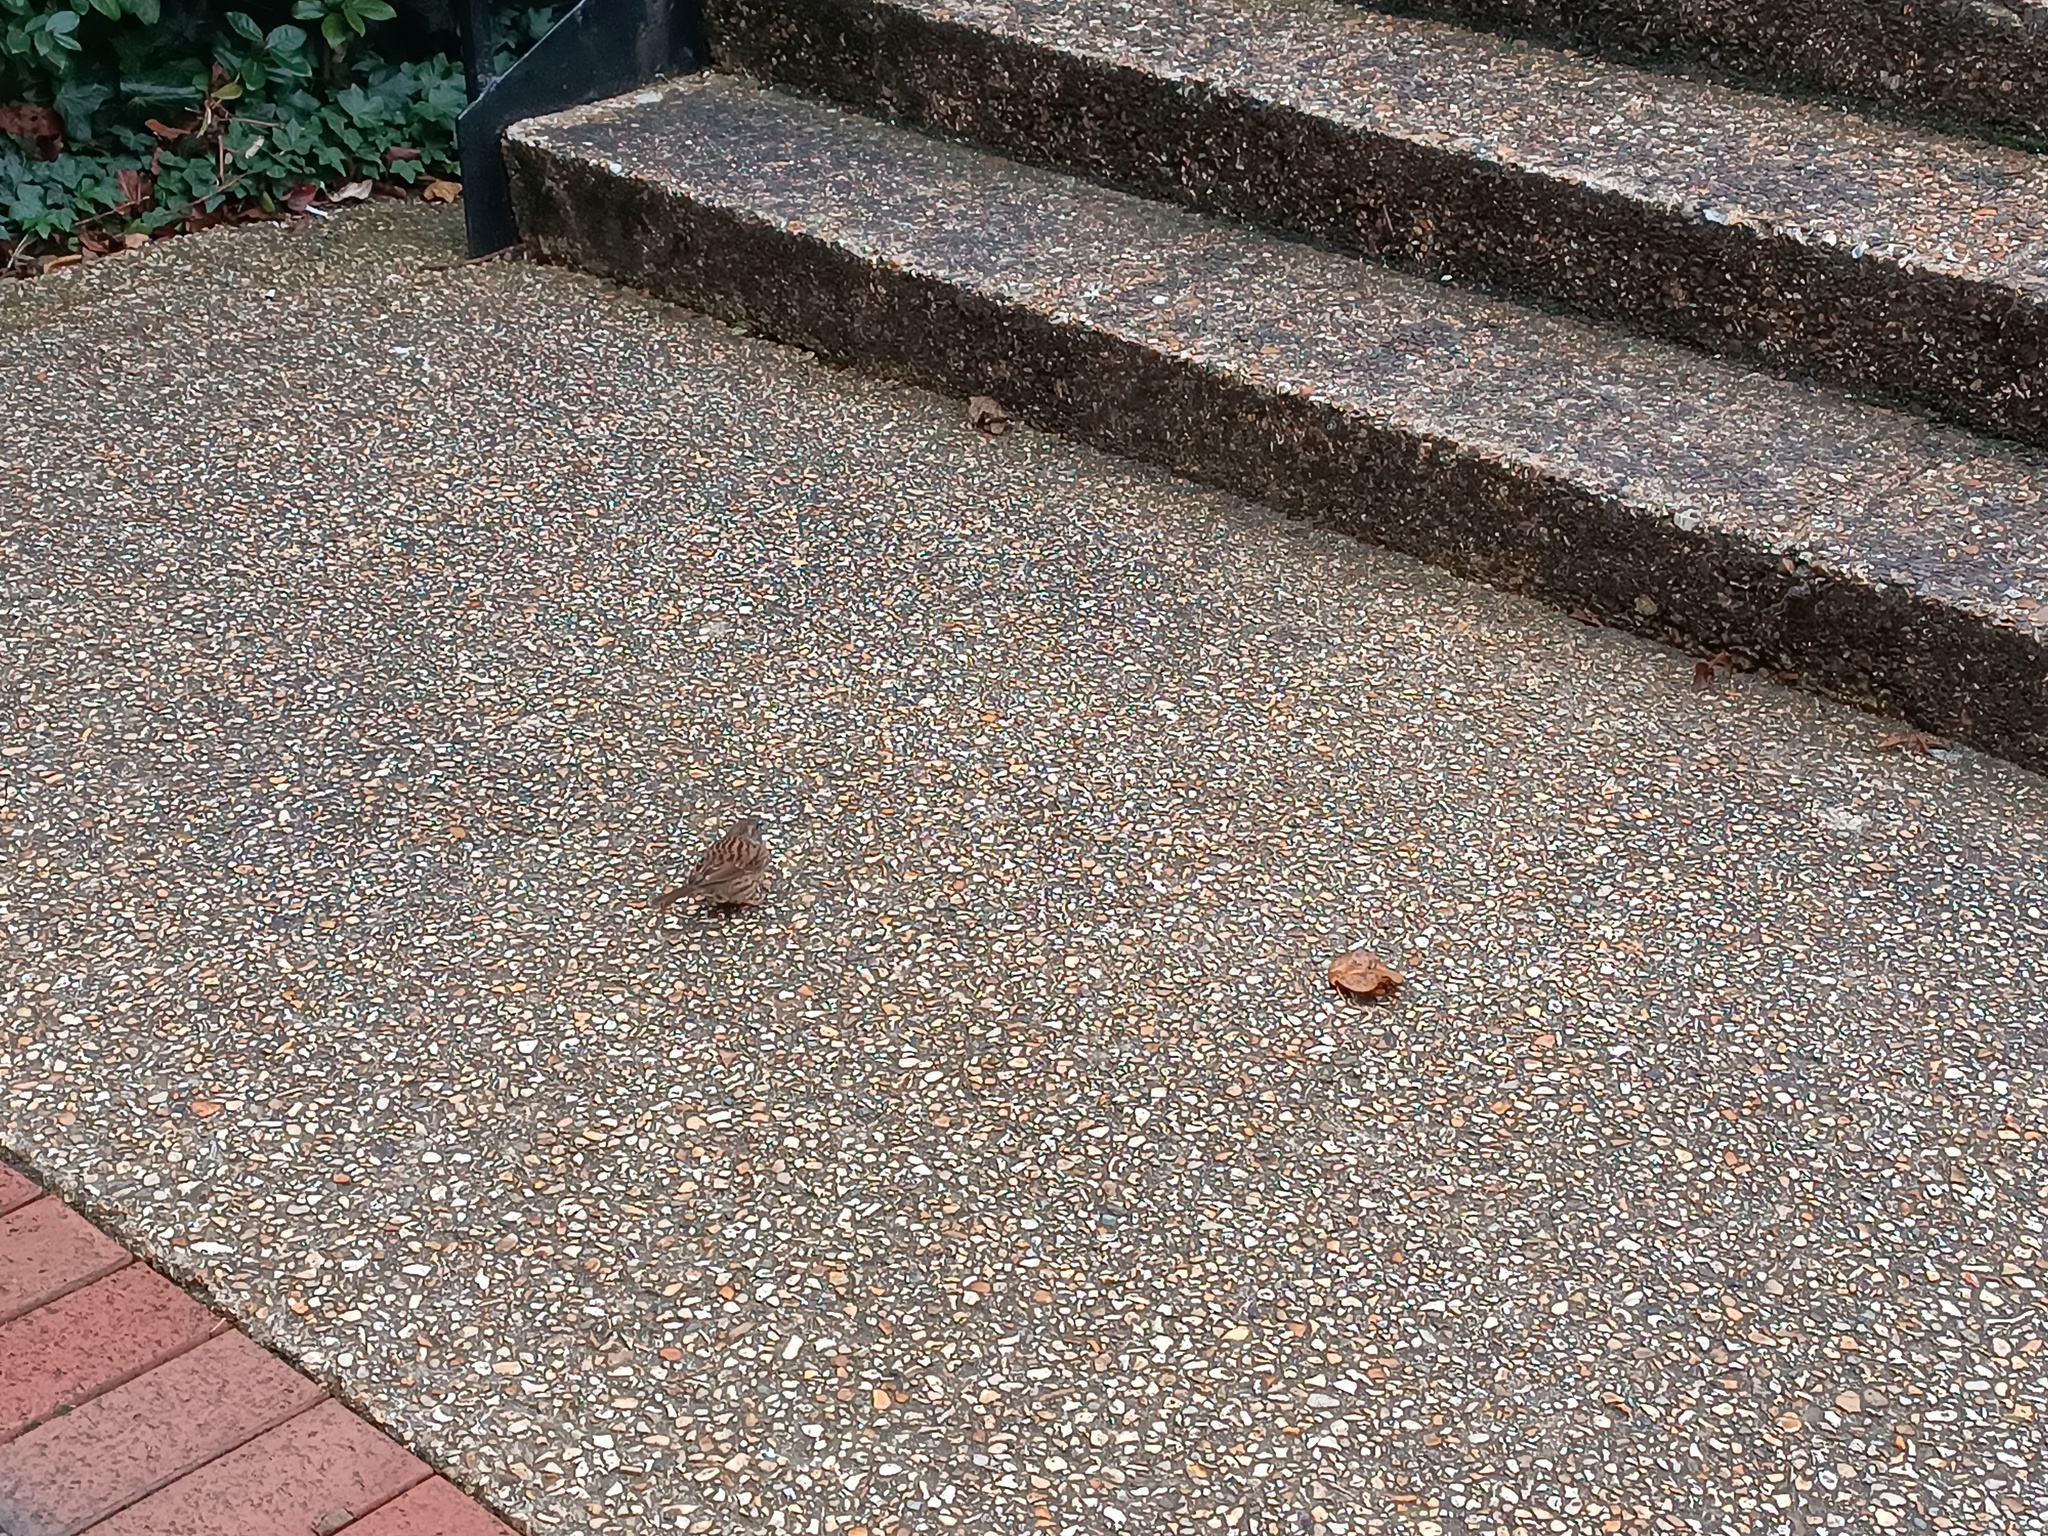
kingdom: Animalia
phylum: Chordata
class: Aves
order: Passeriformes
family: Prunellidae
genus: Prunella
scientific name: Prunella modularis
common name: Dunnock
